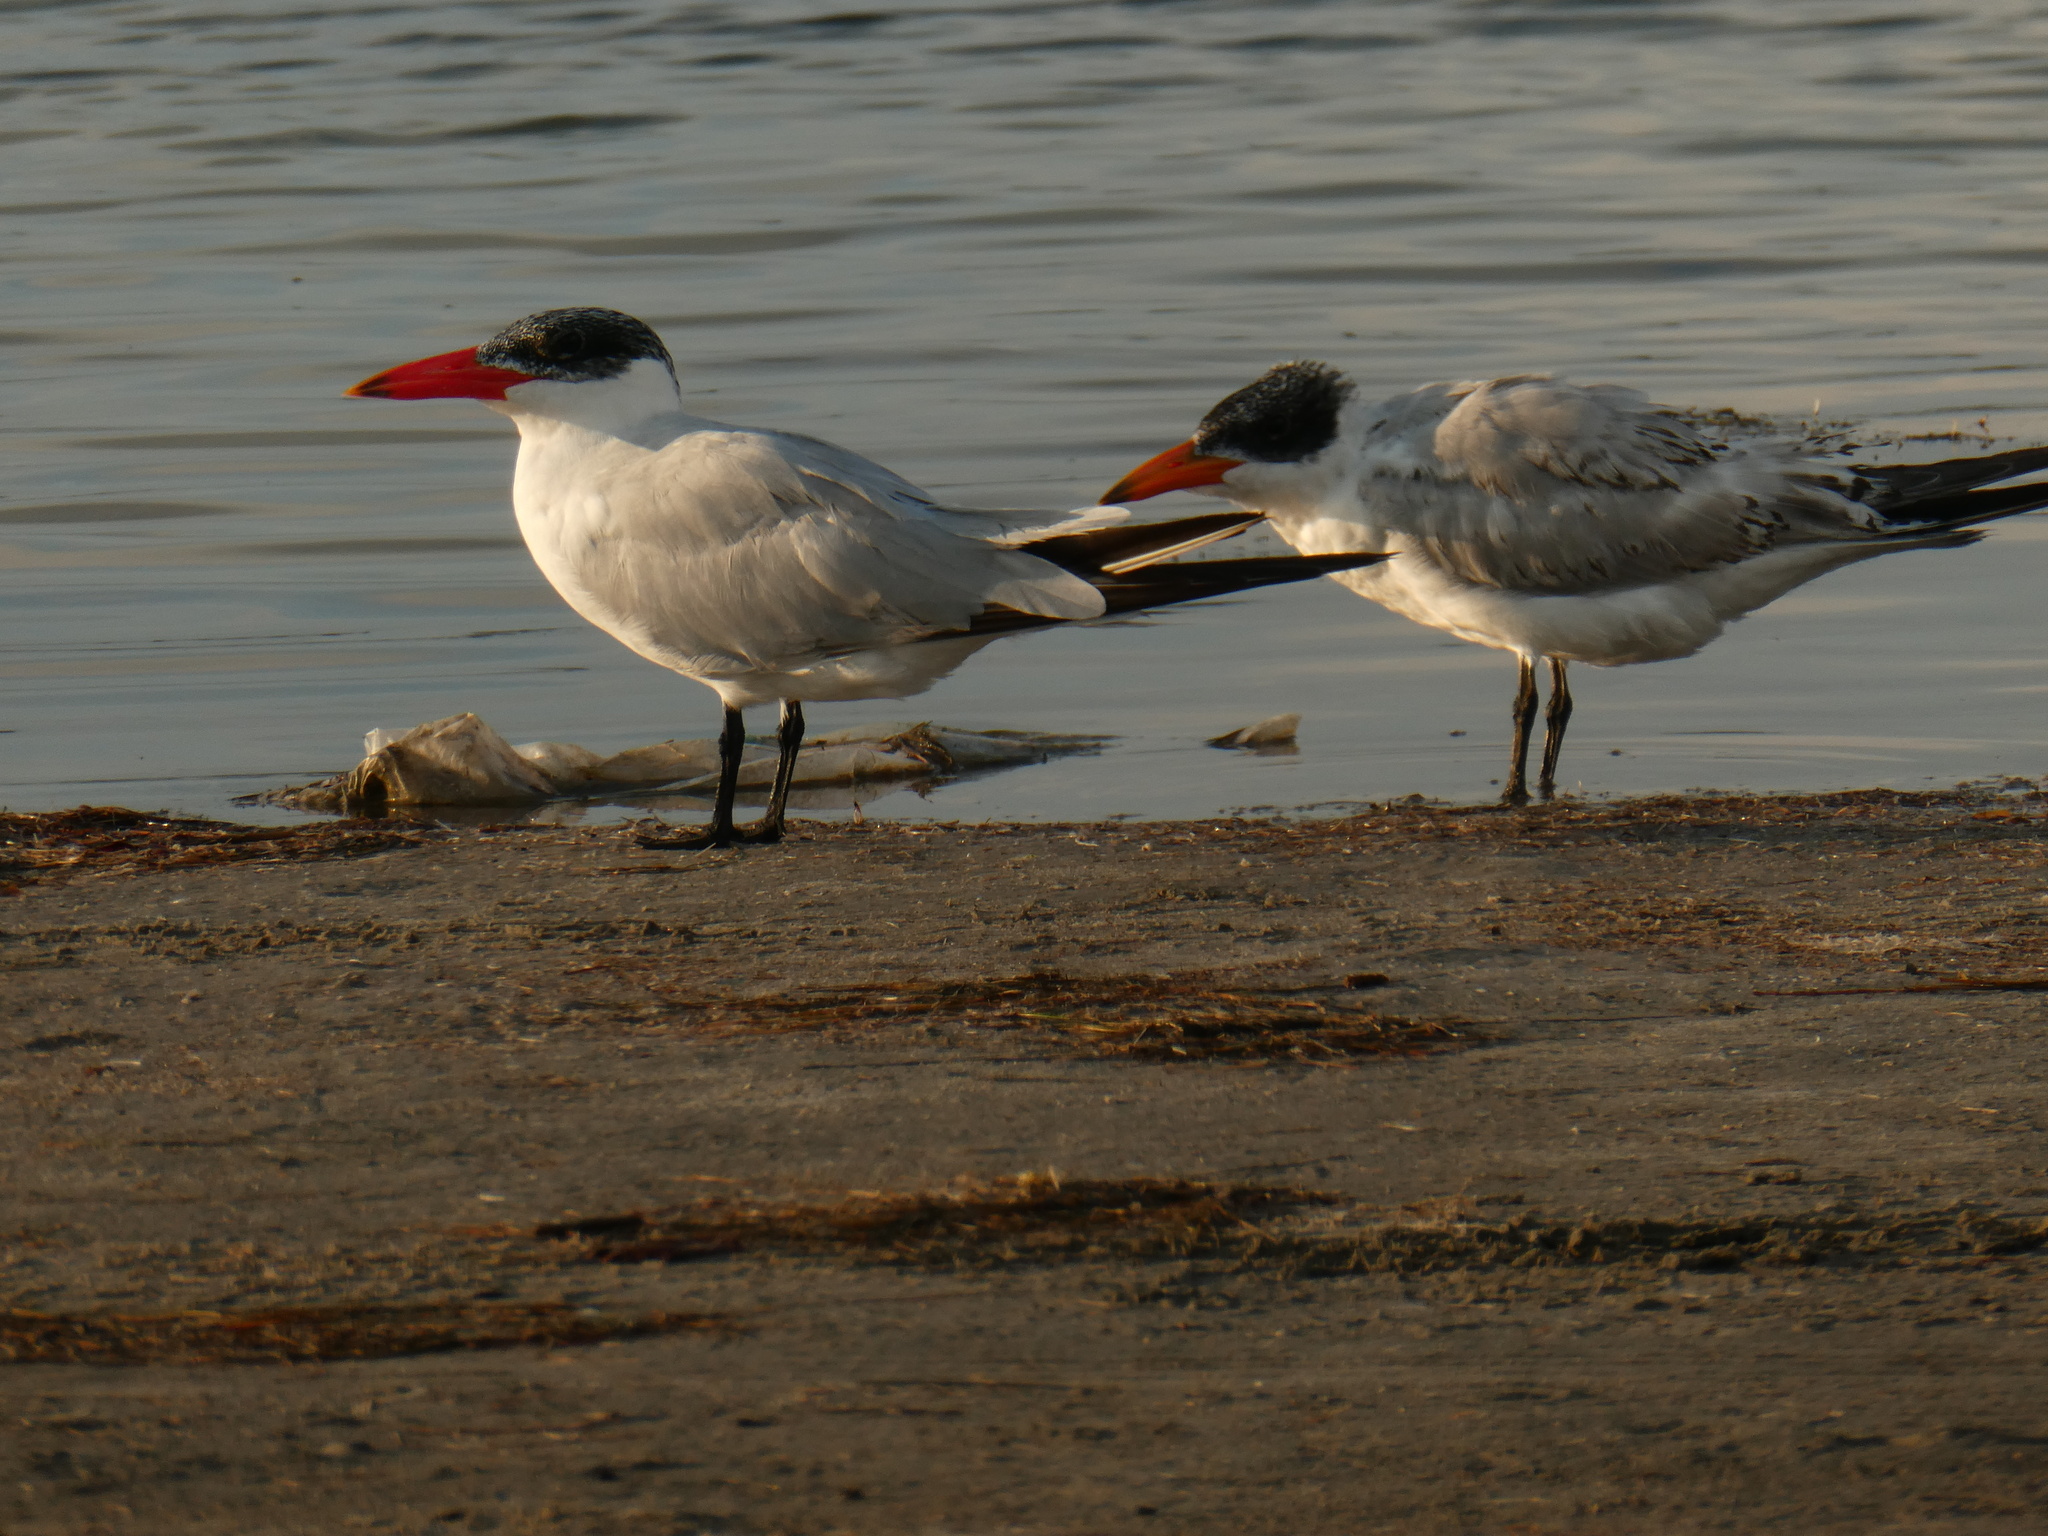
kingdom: Animalia
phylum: Chordata
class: Aves
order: Charadriiformes
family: Laridae
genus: Hydroprogne
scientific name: Hydroprogne caspia
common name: Caspian tern
